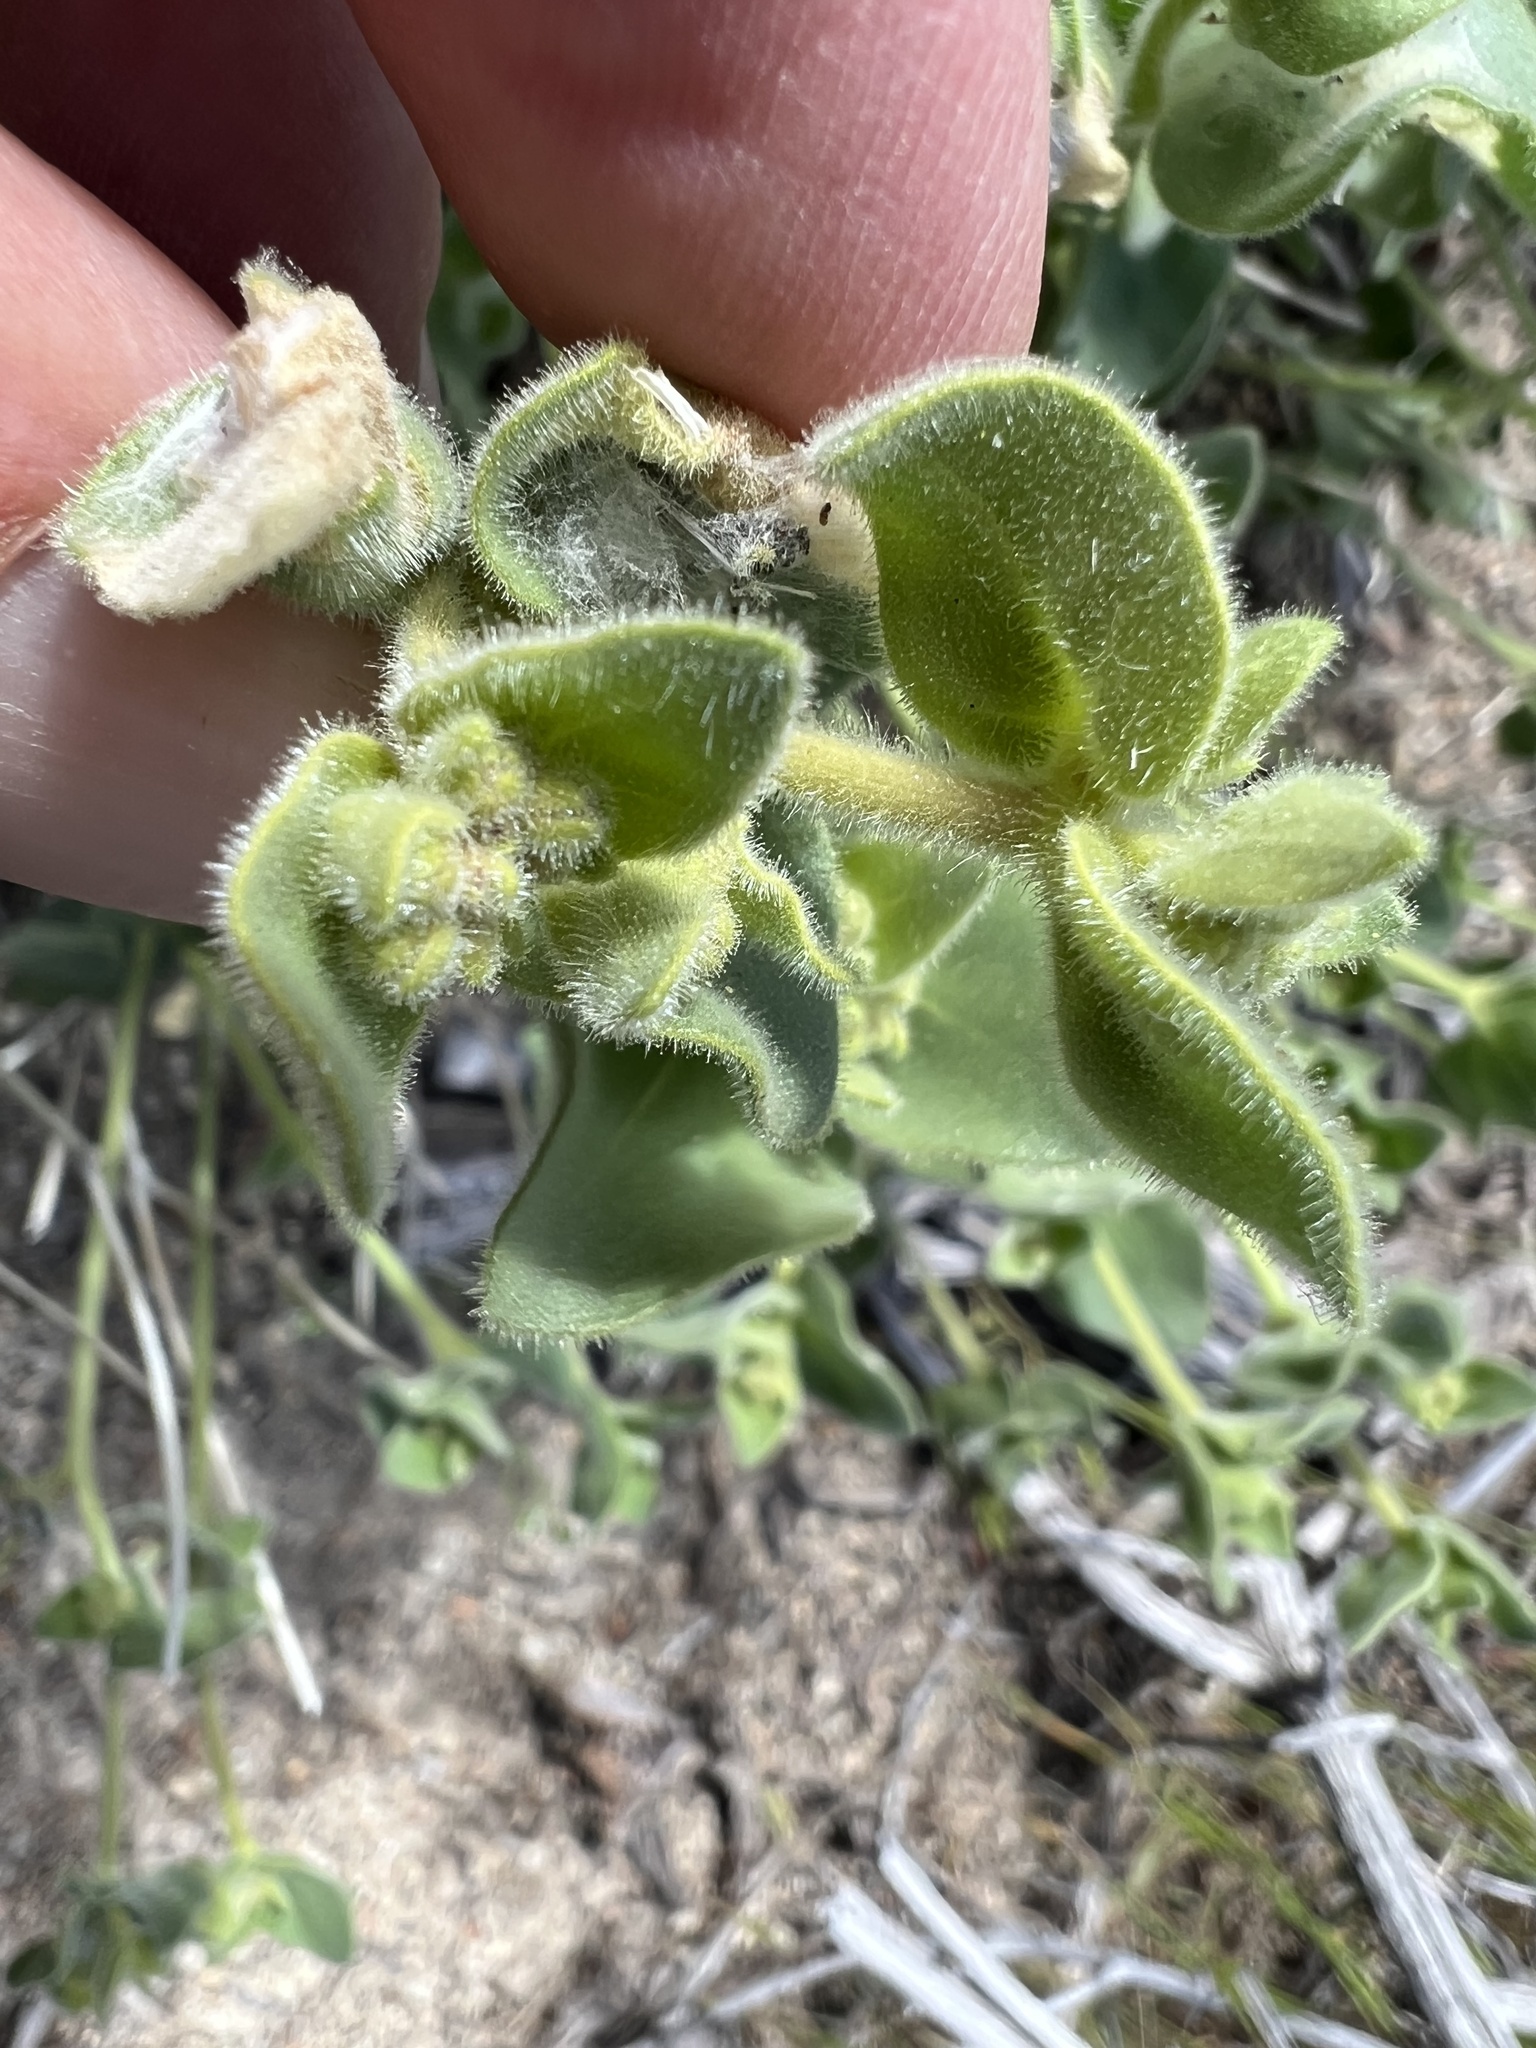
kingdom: Plantae
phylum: Tracheophyta
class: Magnoliopsida
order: Caryophyllales
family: Nyctaginaceae
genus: Mirabilis
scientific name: Mirabilis laevis
